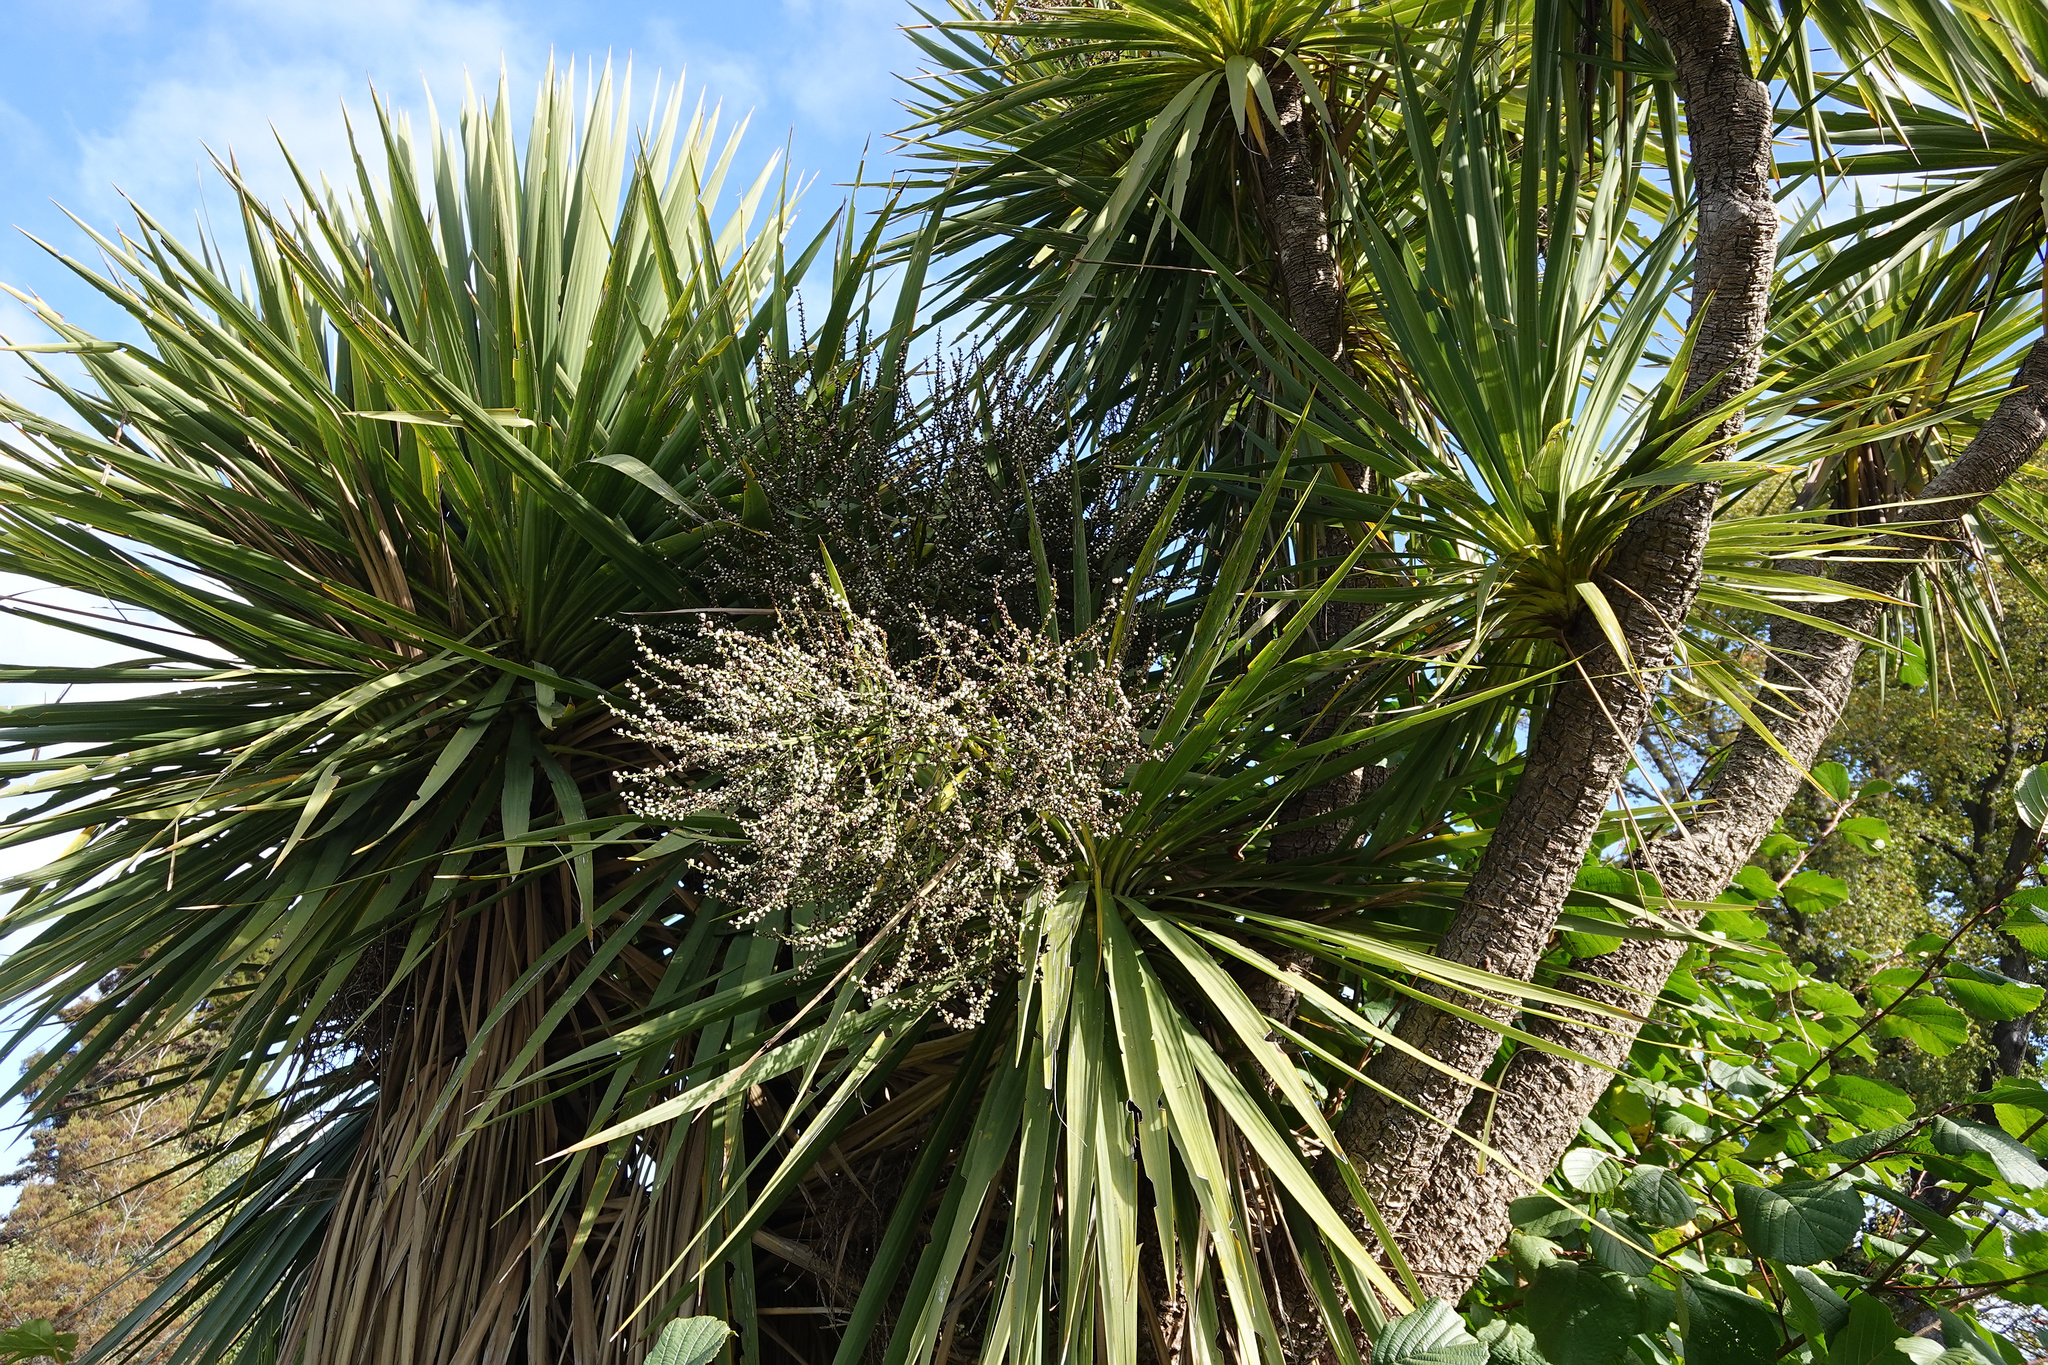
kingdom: Plantae
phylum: Tracheophyta
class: Liliopsida
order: Asparagales
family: Asparagaceae
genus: Cordyline
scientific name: Cordyline australis
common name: Cabbage-palm
